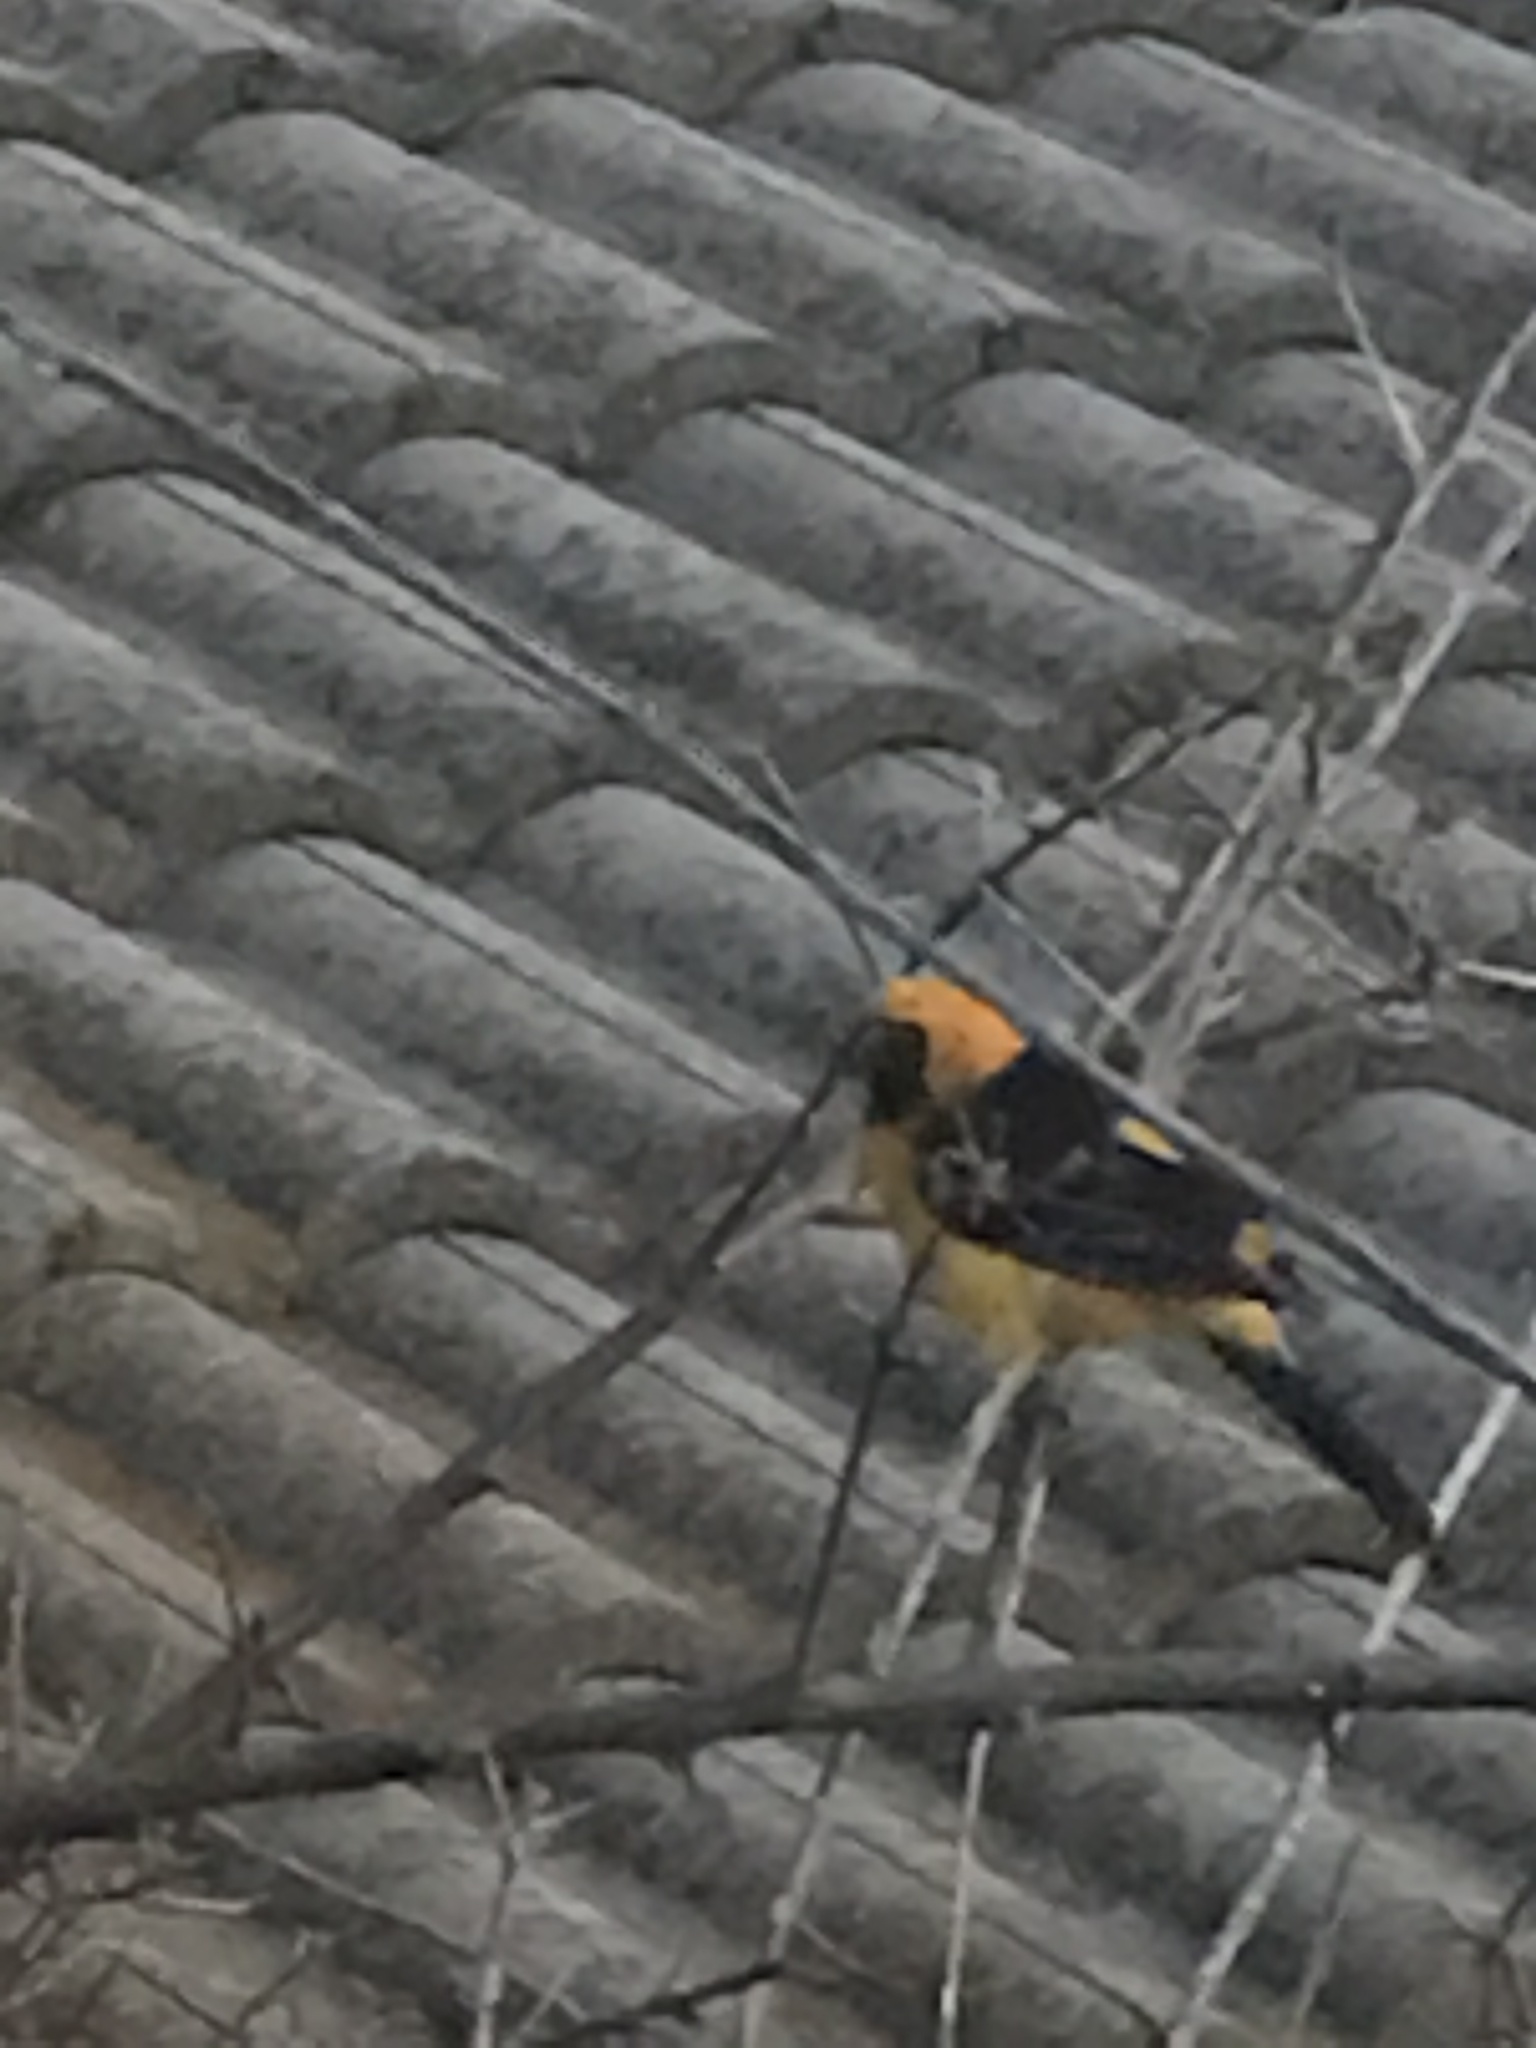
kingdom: Animalia
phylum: Chordata
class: Aves
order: Passeriformes
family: Icteridae
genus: Icterus
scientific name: Icterus cucullatus
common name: Hooded oriole
